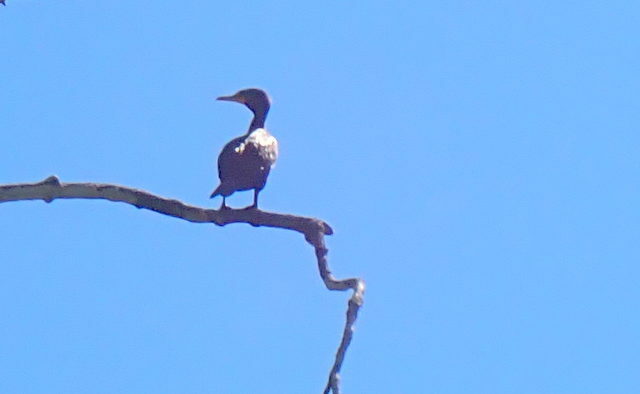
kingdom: Animalia
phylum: Chordata
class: Aves
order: Suliformes
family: Phalacrocoracidae
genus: Phalacrocorax
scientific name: Phalacrocorax auritus
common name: Double-crested cormorant
